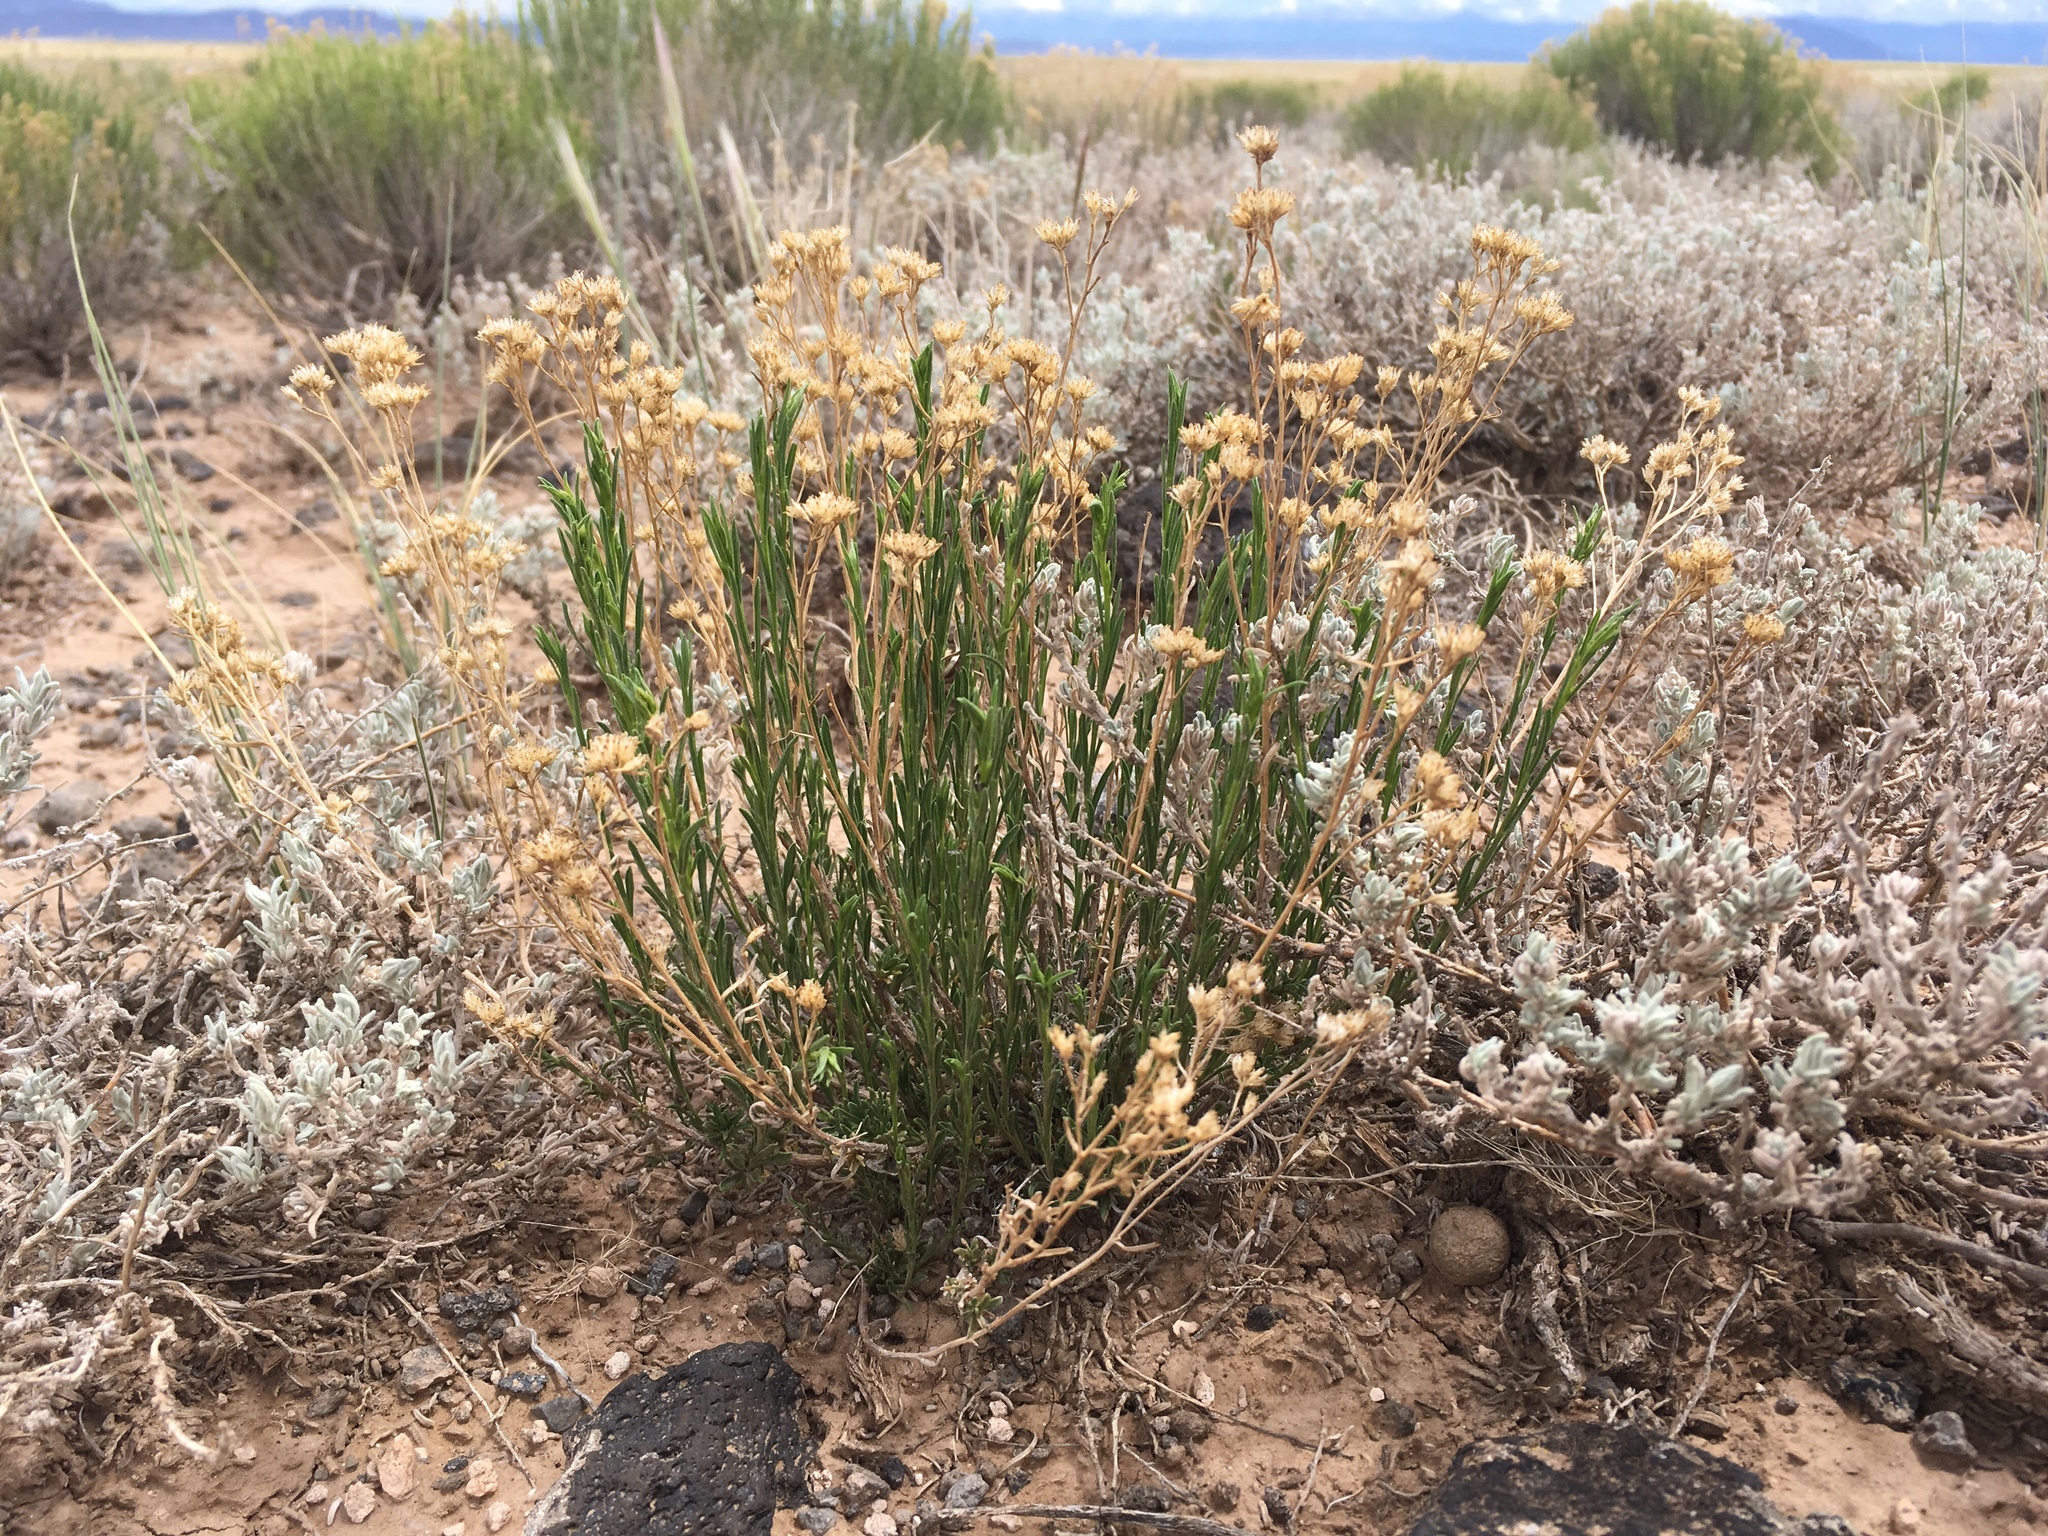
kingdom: Plantae
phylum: Tracheophyta
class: Magnoliopsida
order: Asterales
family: Asteraceae
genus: Gutierrezia
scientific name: Gutierrezia sarothrae
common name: Broom snakeweed
